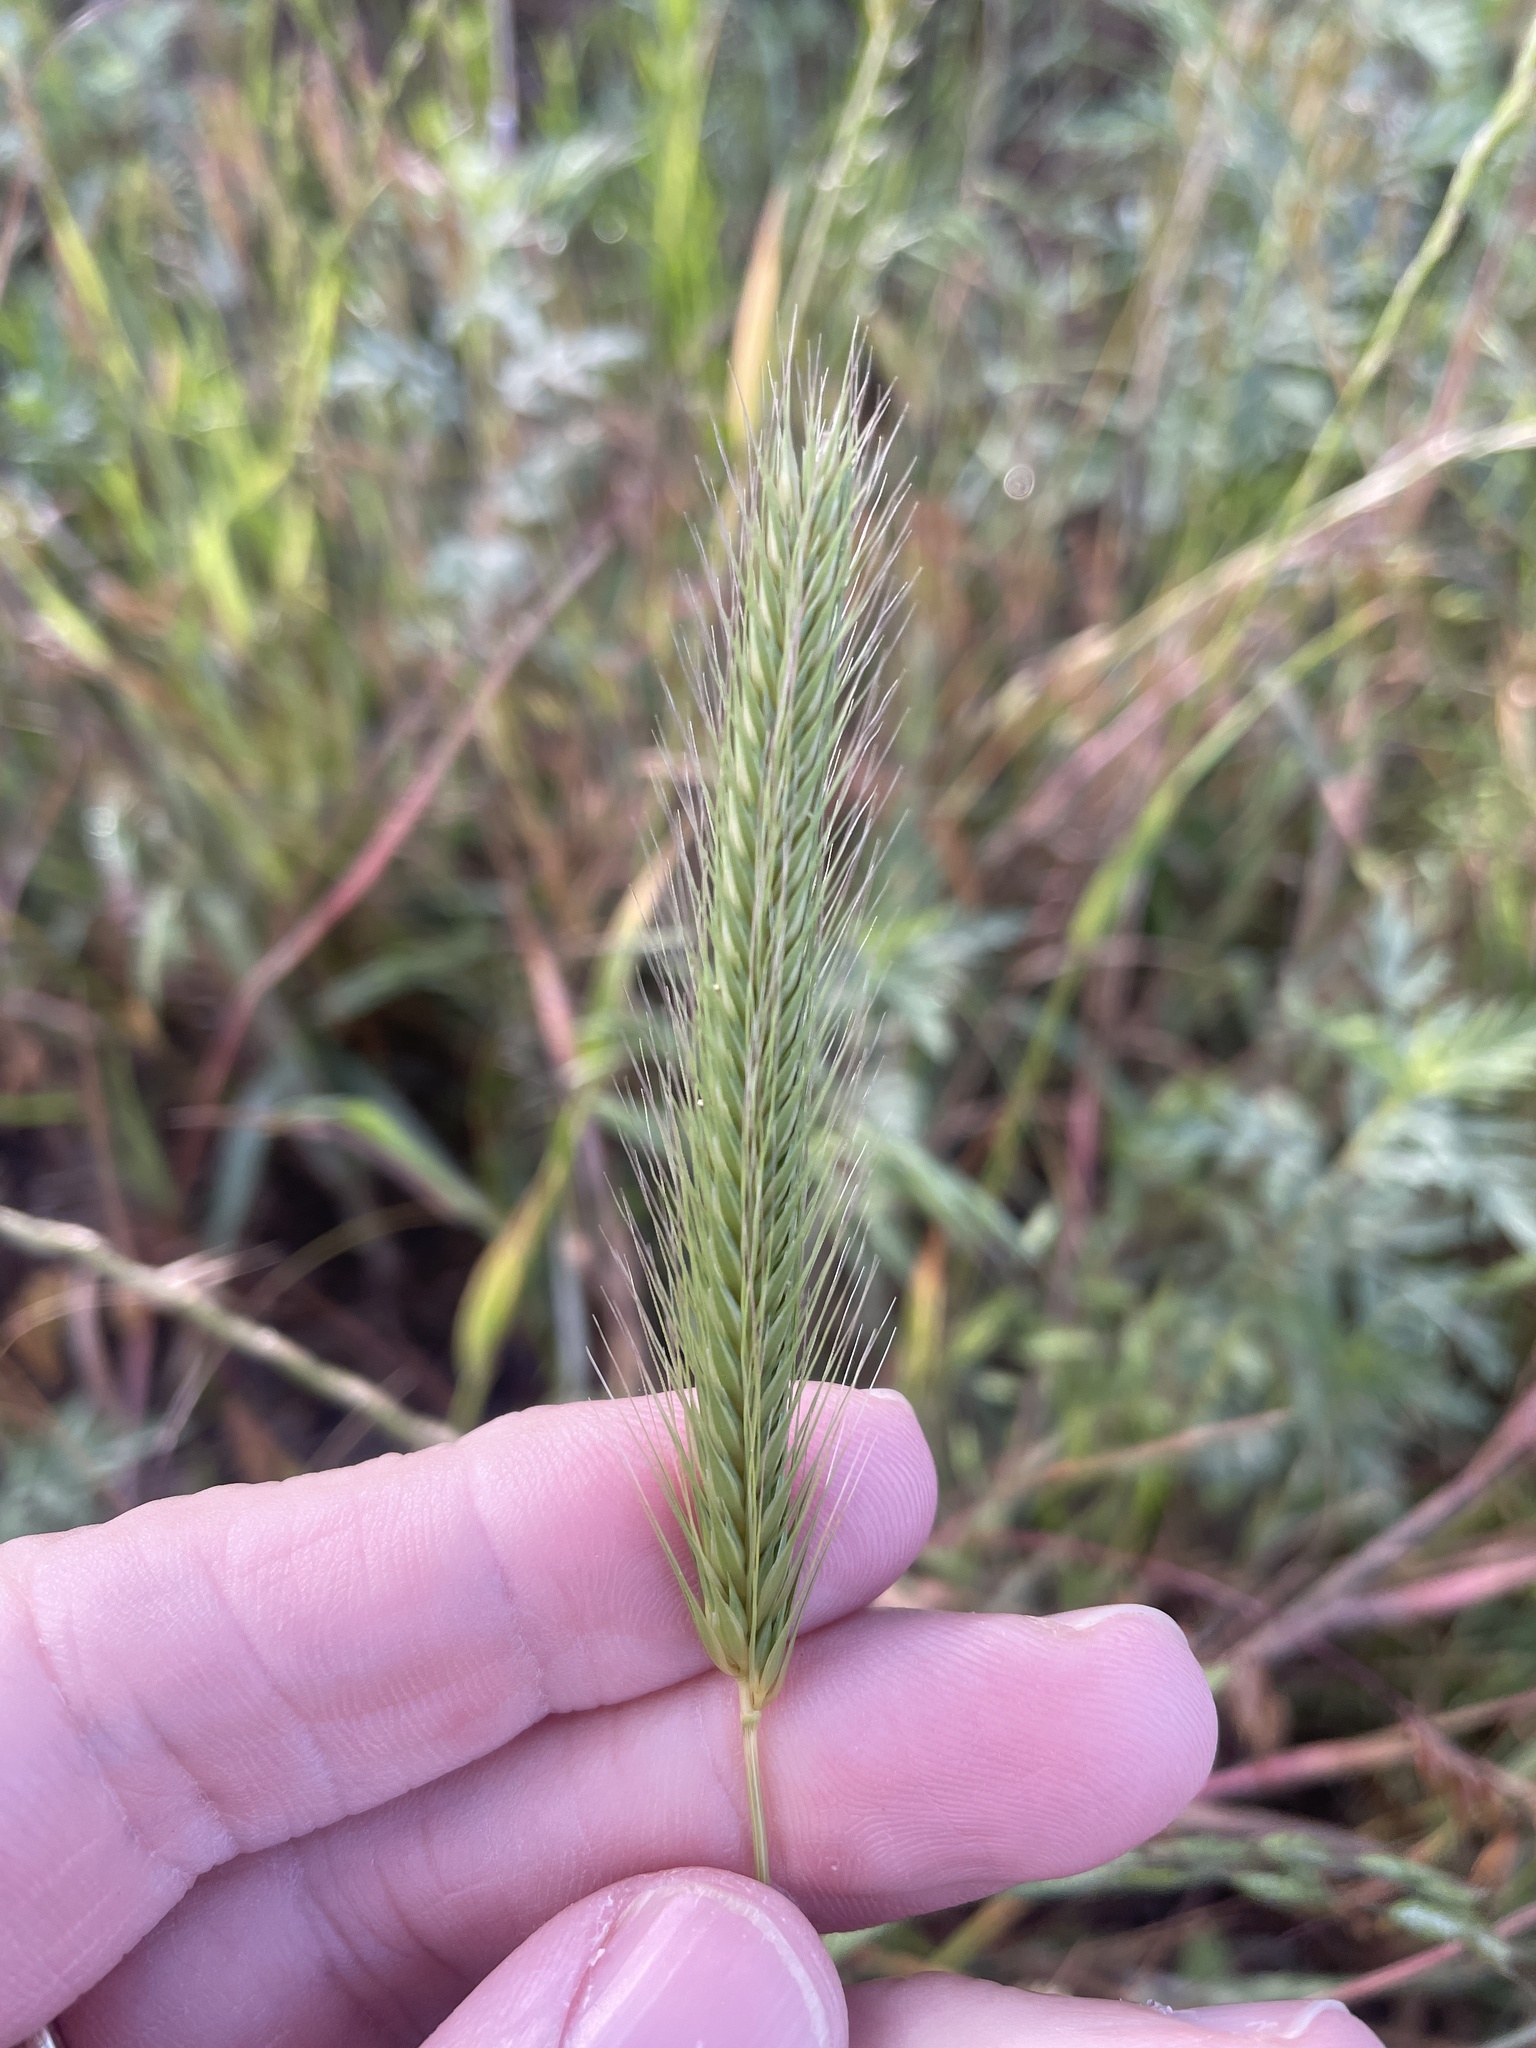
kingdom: Plantae
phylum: Tracheophyta
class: Liliopsida
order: Poales
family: Poaceae
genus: Hordeum
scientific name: Hordeum pusillum
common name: Little barley
